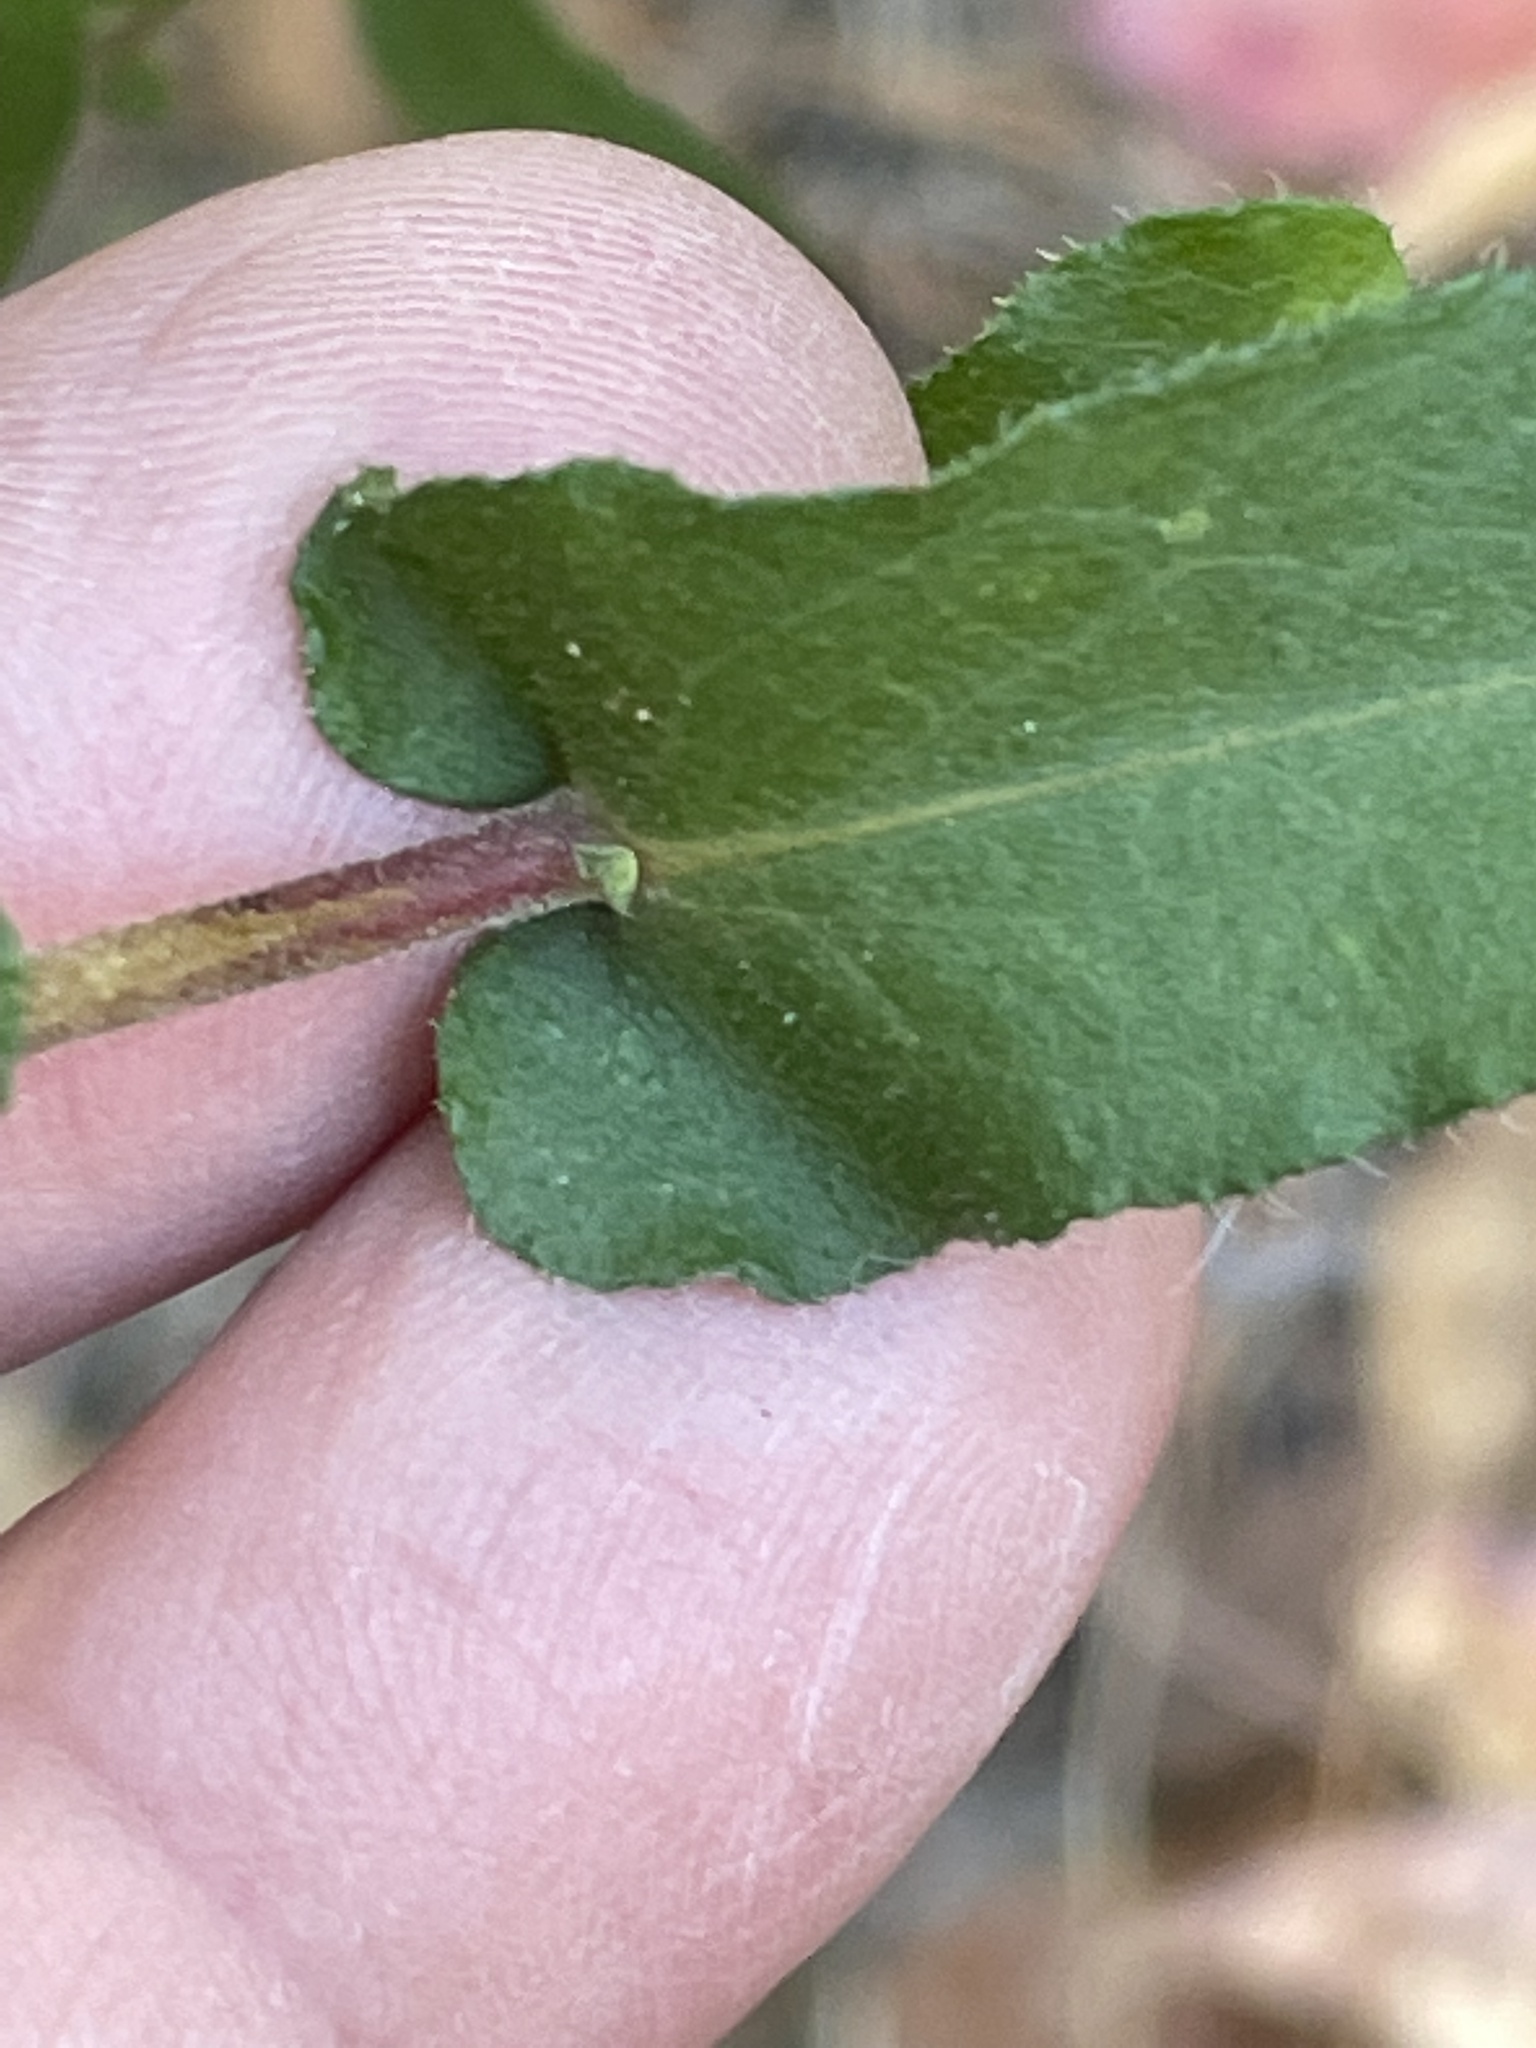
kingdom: Plantae
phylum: Tracheophyta
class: Magnoliopsida
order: Asterales
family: Asteraceae
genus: Symphyotrichum
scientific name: Symphyotrichum patens
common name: Late purple aster
